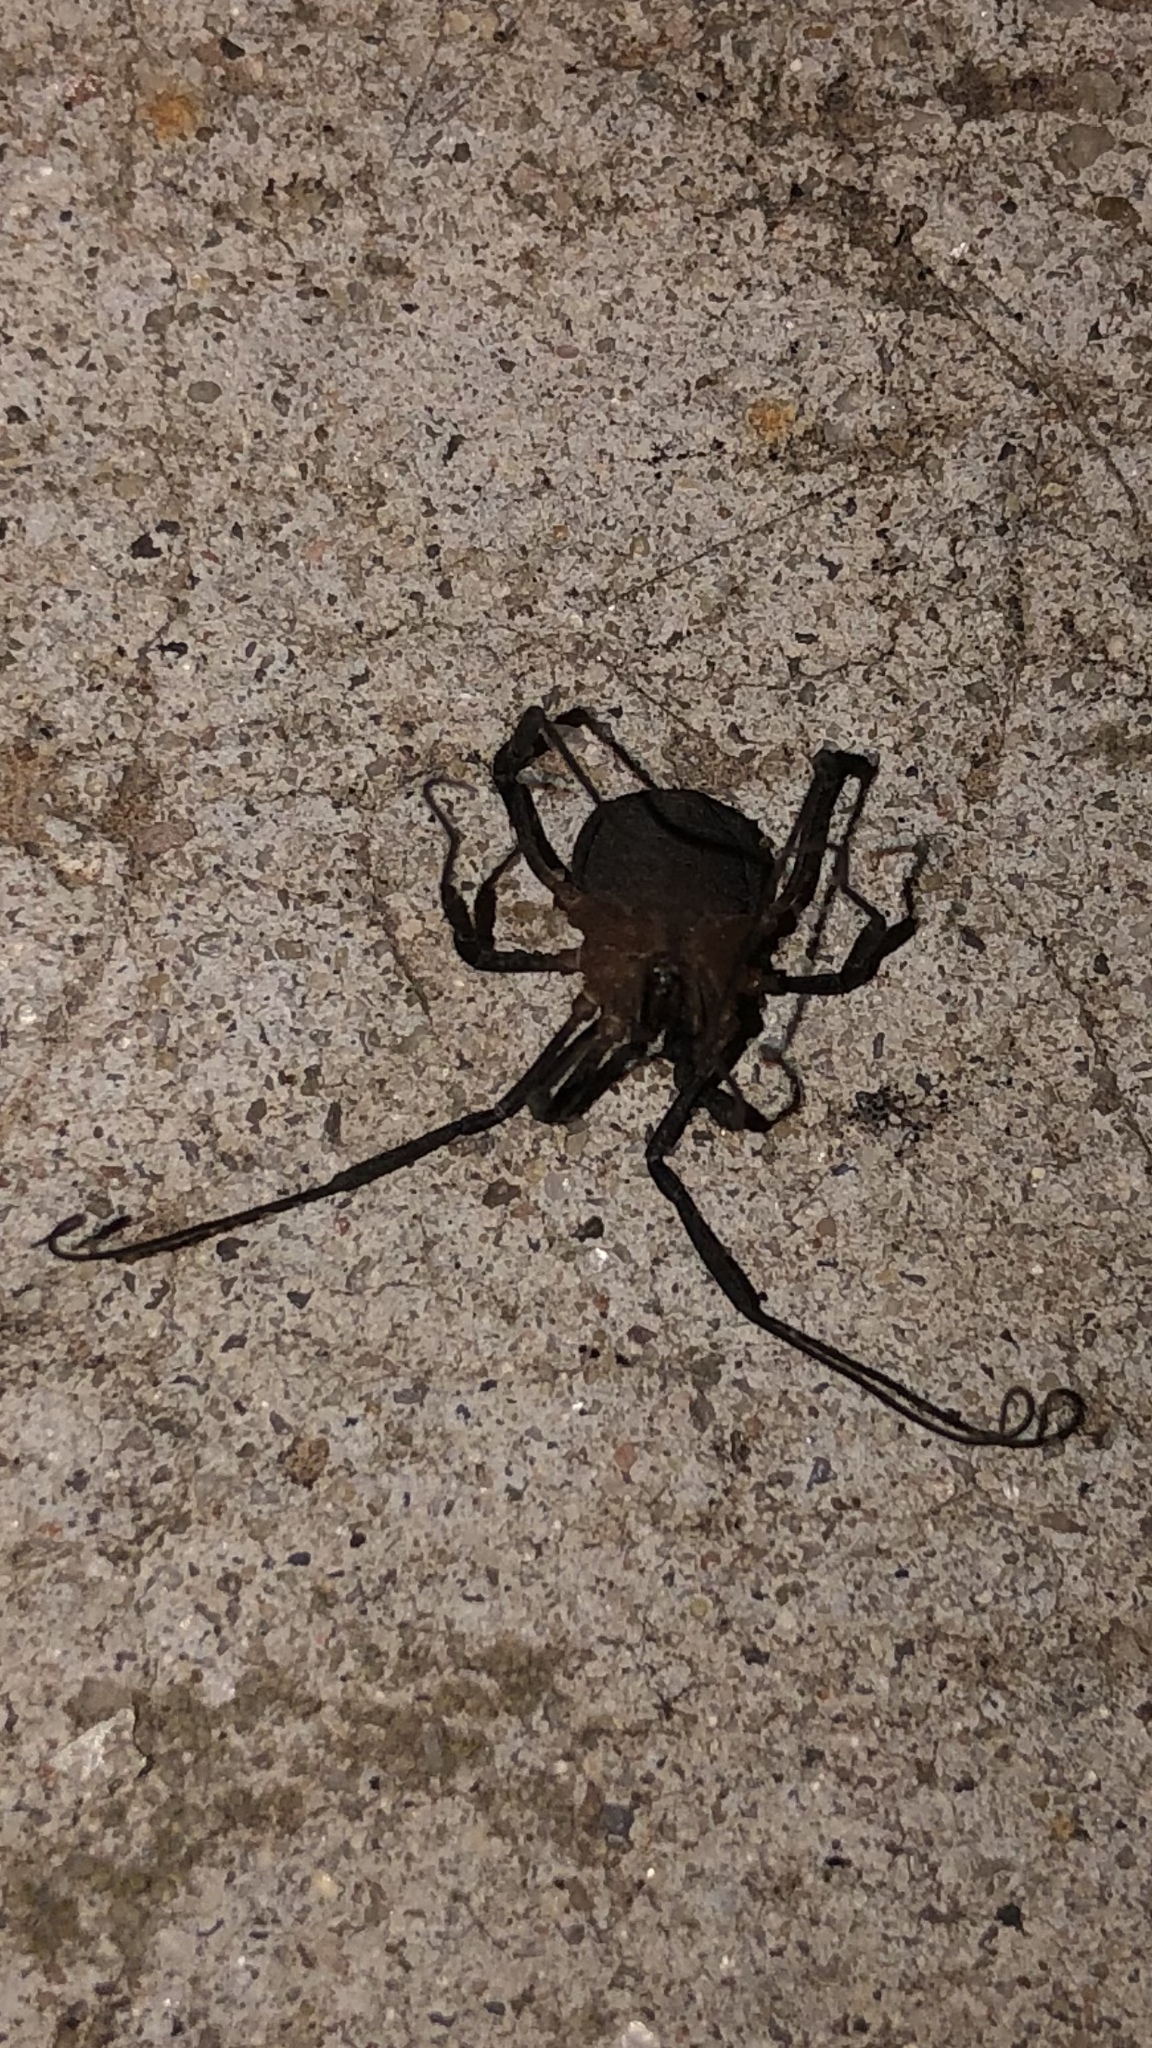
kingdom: Animalia
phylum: Arthropoda
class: Arachnida
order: Opiliones
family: Sclerosomatidae
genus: Eumesosoma
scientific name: Eumesosoma roeweri
